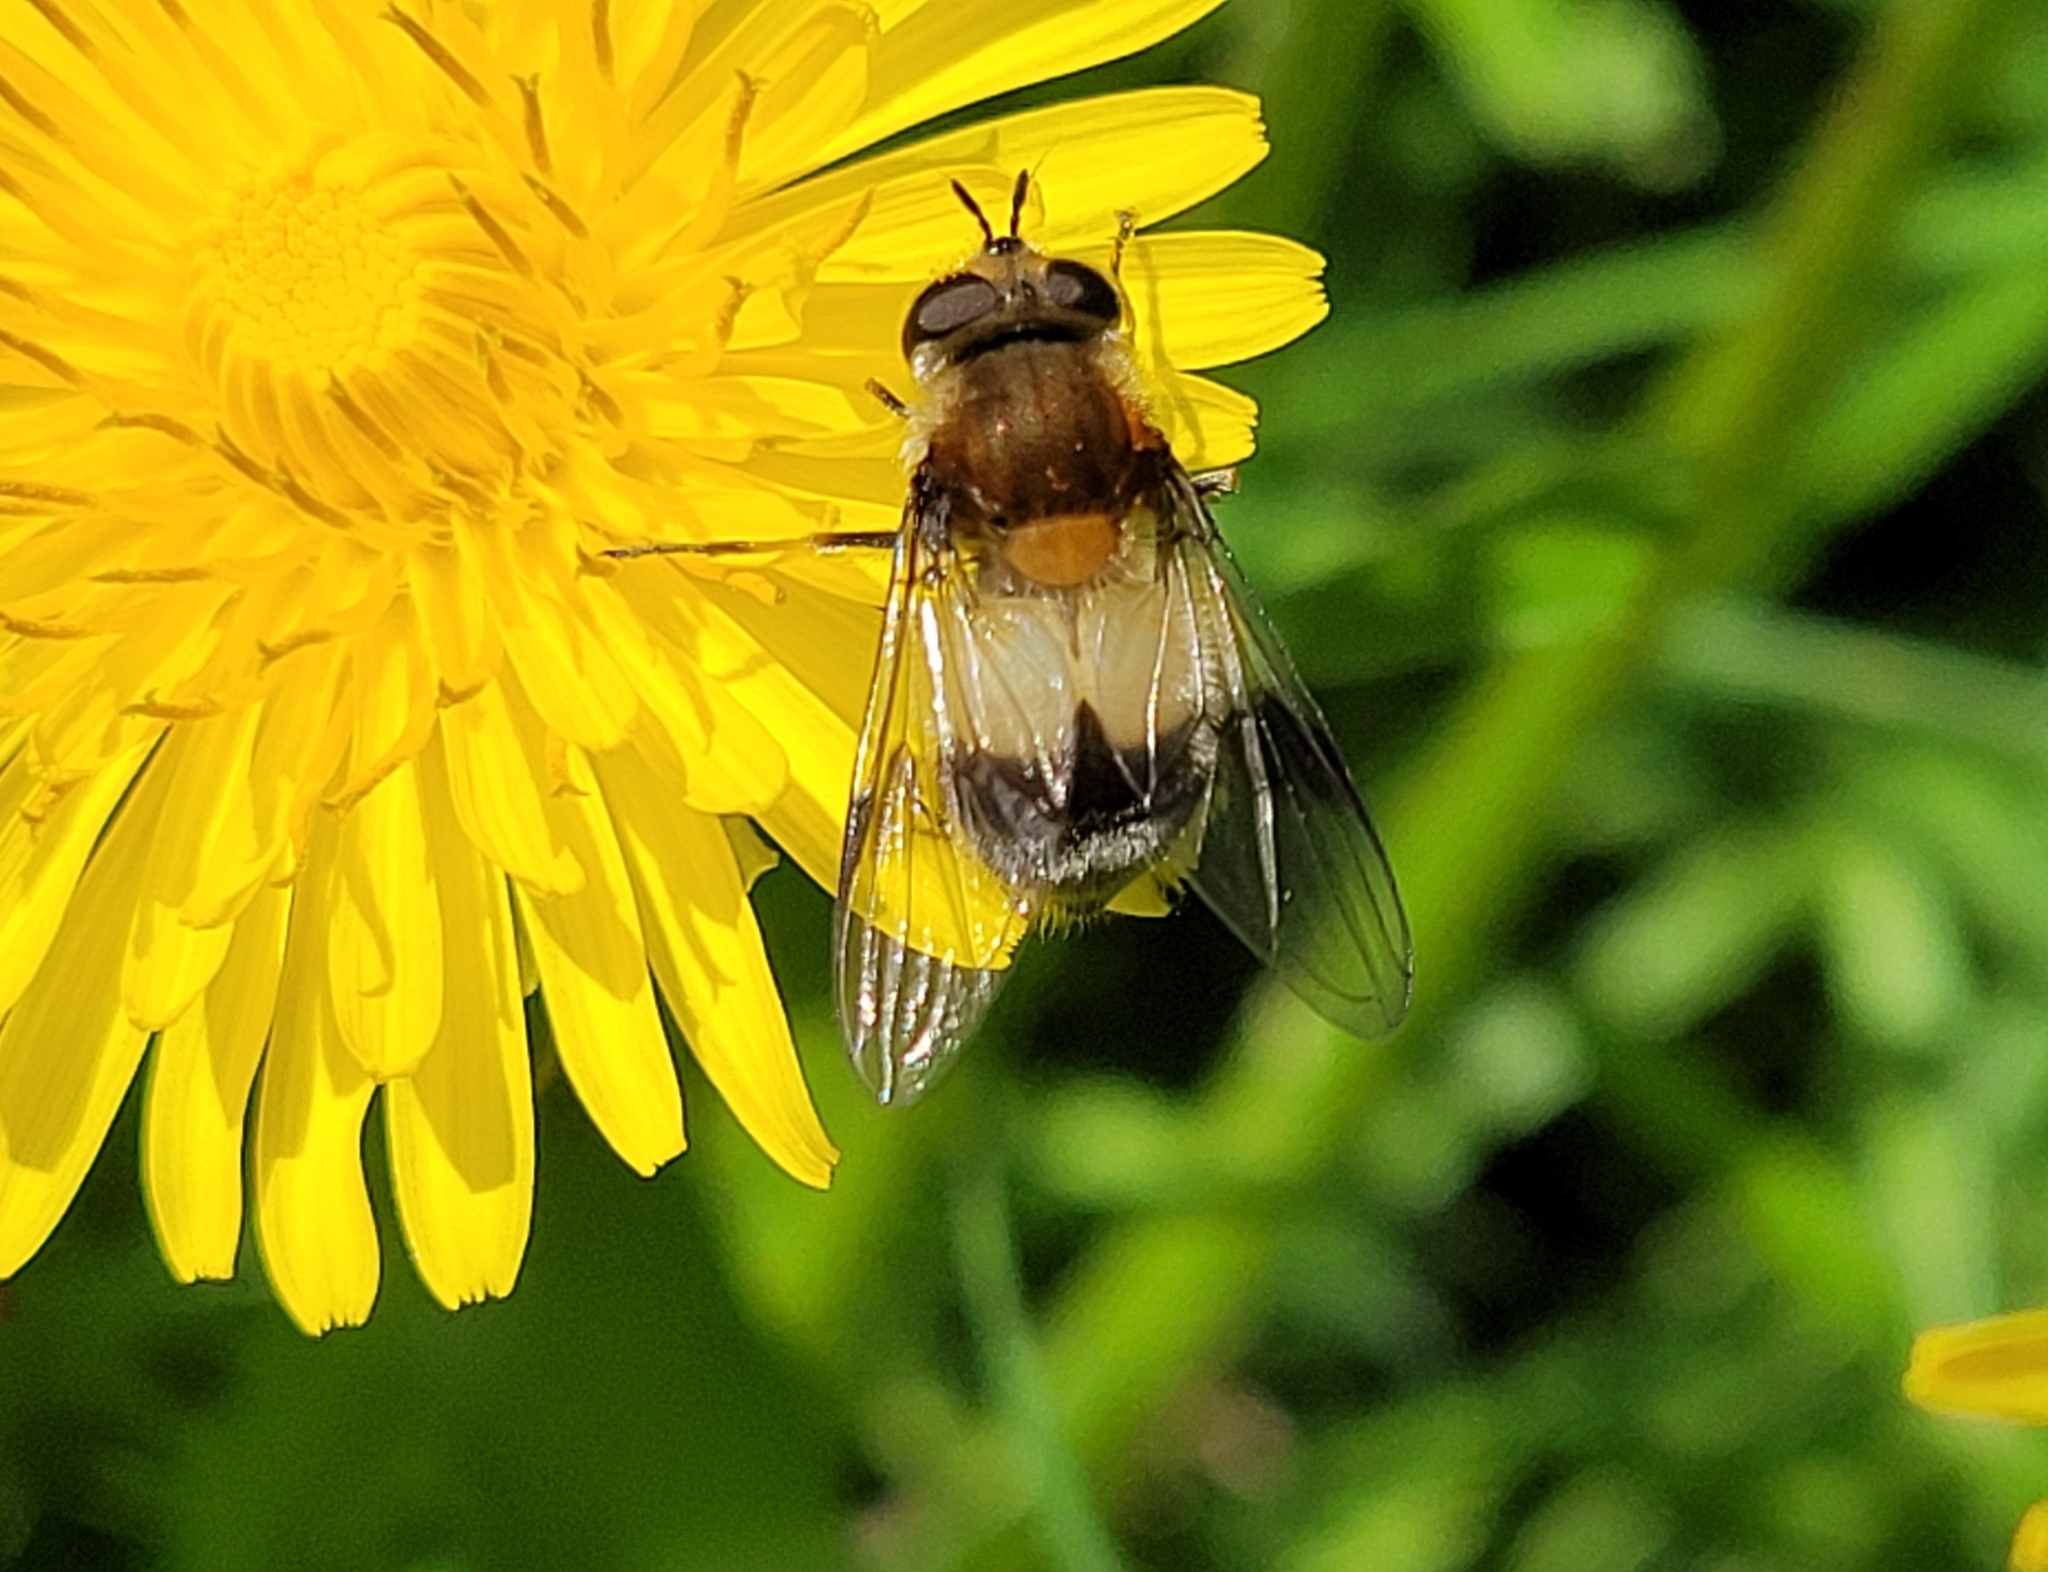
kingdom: Animalia
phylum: Arthropoda
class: Insecta
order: Diptera
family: Syrphidae
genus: Leucozona
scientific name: Leucozona lucorum
